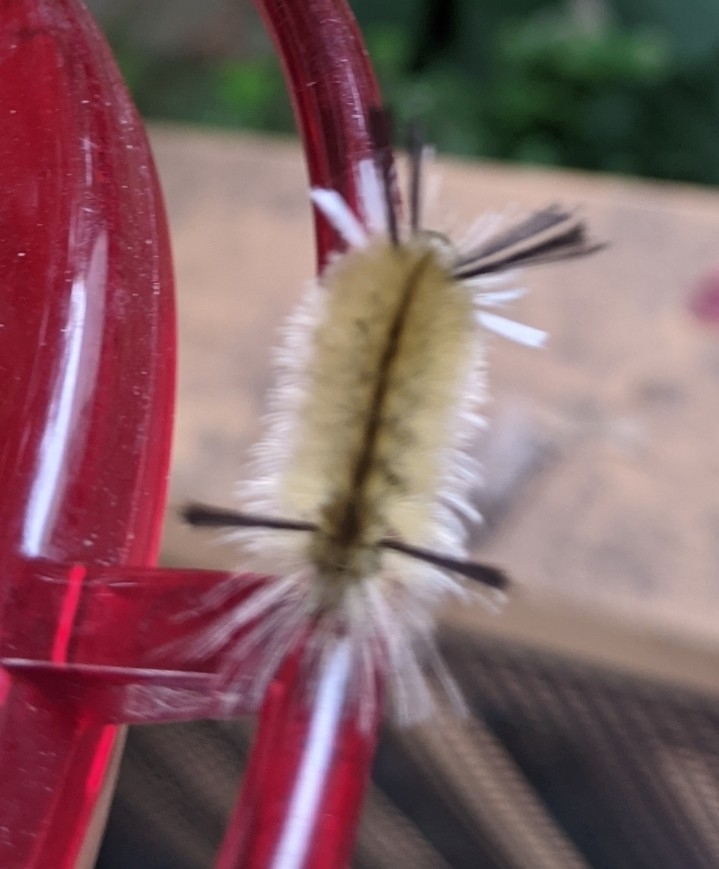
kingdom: Animalia
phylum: Arthropoda
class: Insecta
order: Lepidoptera
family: Erebidae
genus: Halysidota
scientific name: Halysidota tessellaris
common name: Banded tussock moth
